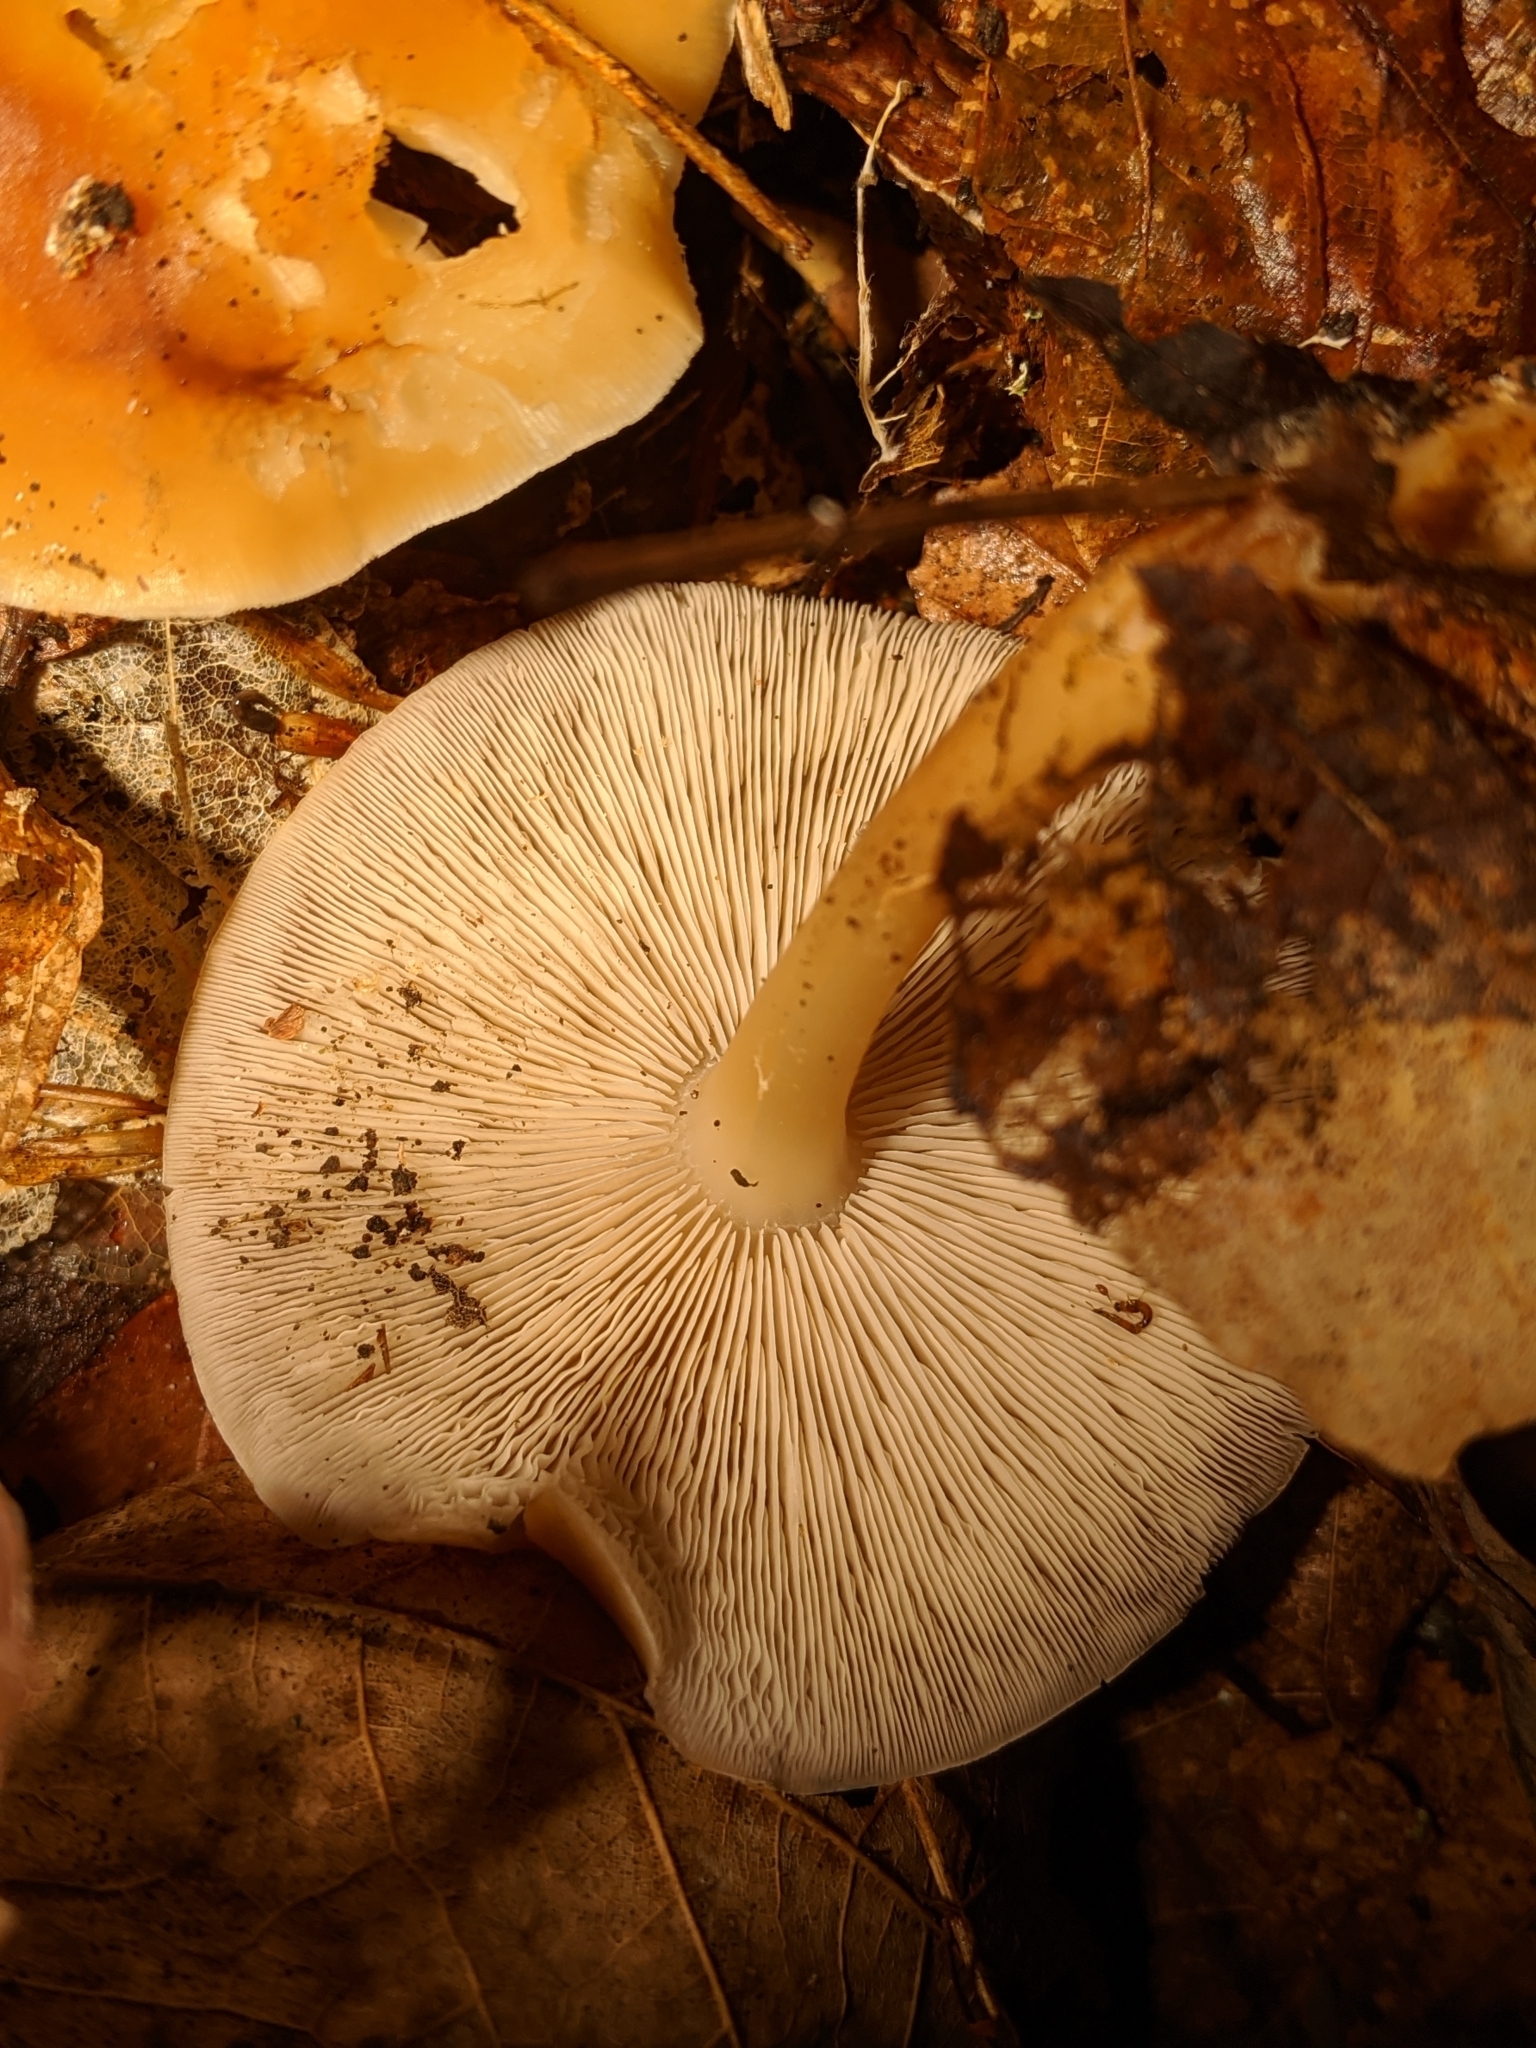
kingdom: Fungi
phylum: Basidiomycota
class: Agaricomycetes
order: Agaricales
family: Omphalotaceae
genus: Gymnopus
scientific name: Gymnopus dryophilus
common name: Penny top
